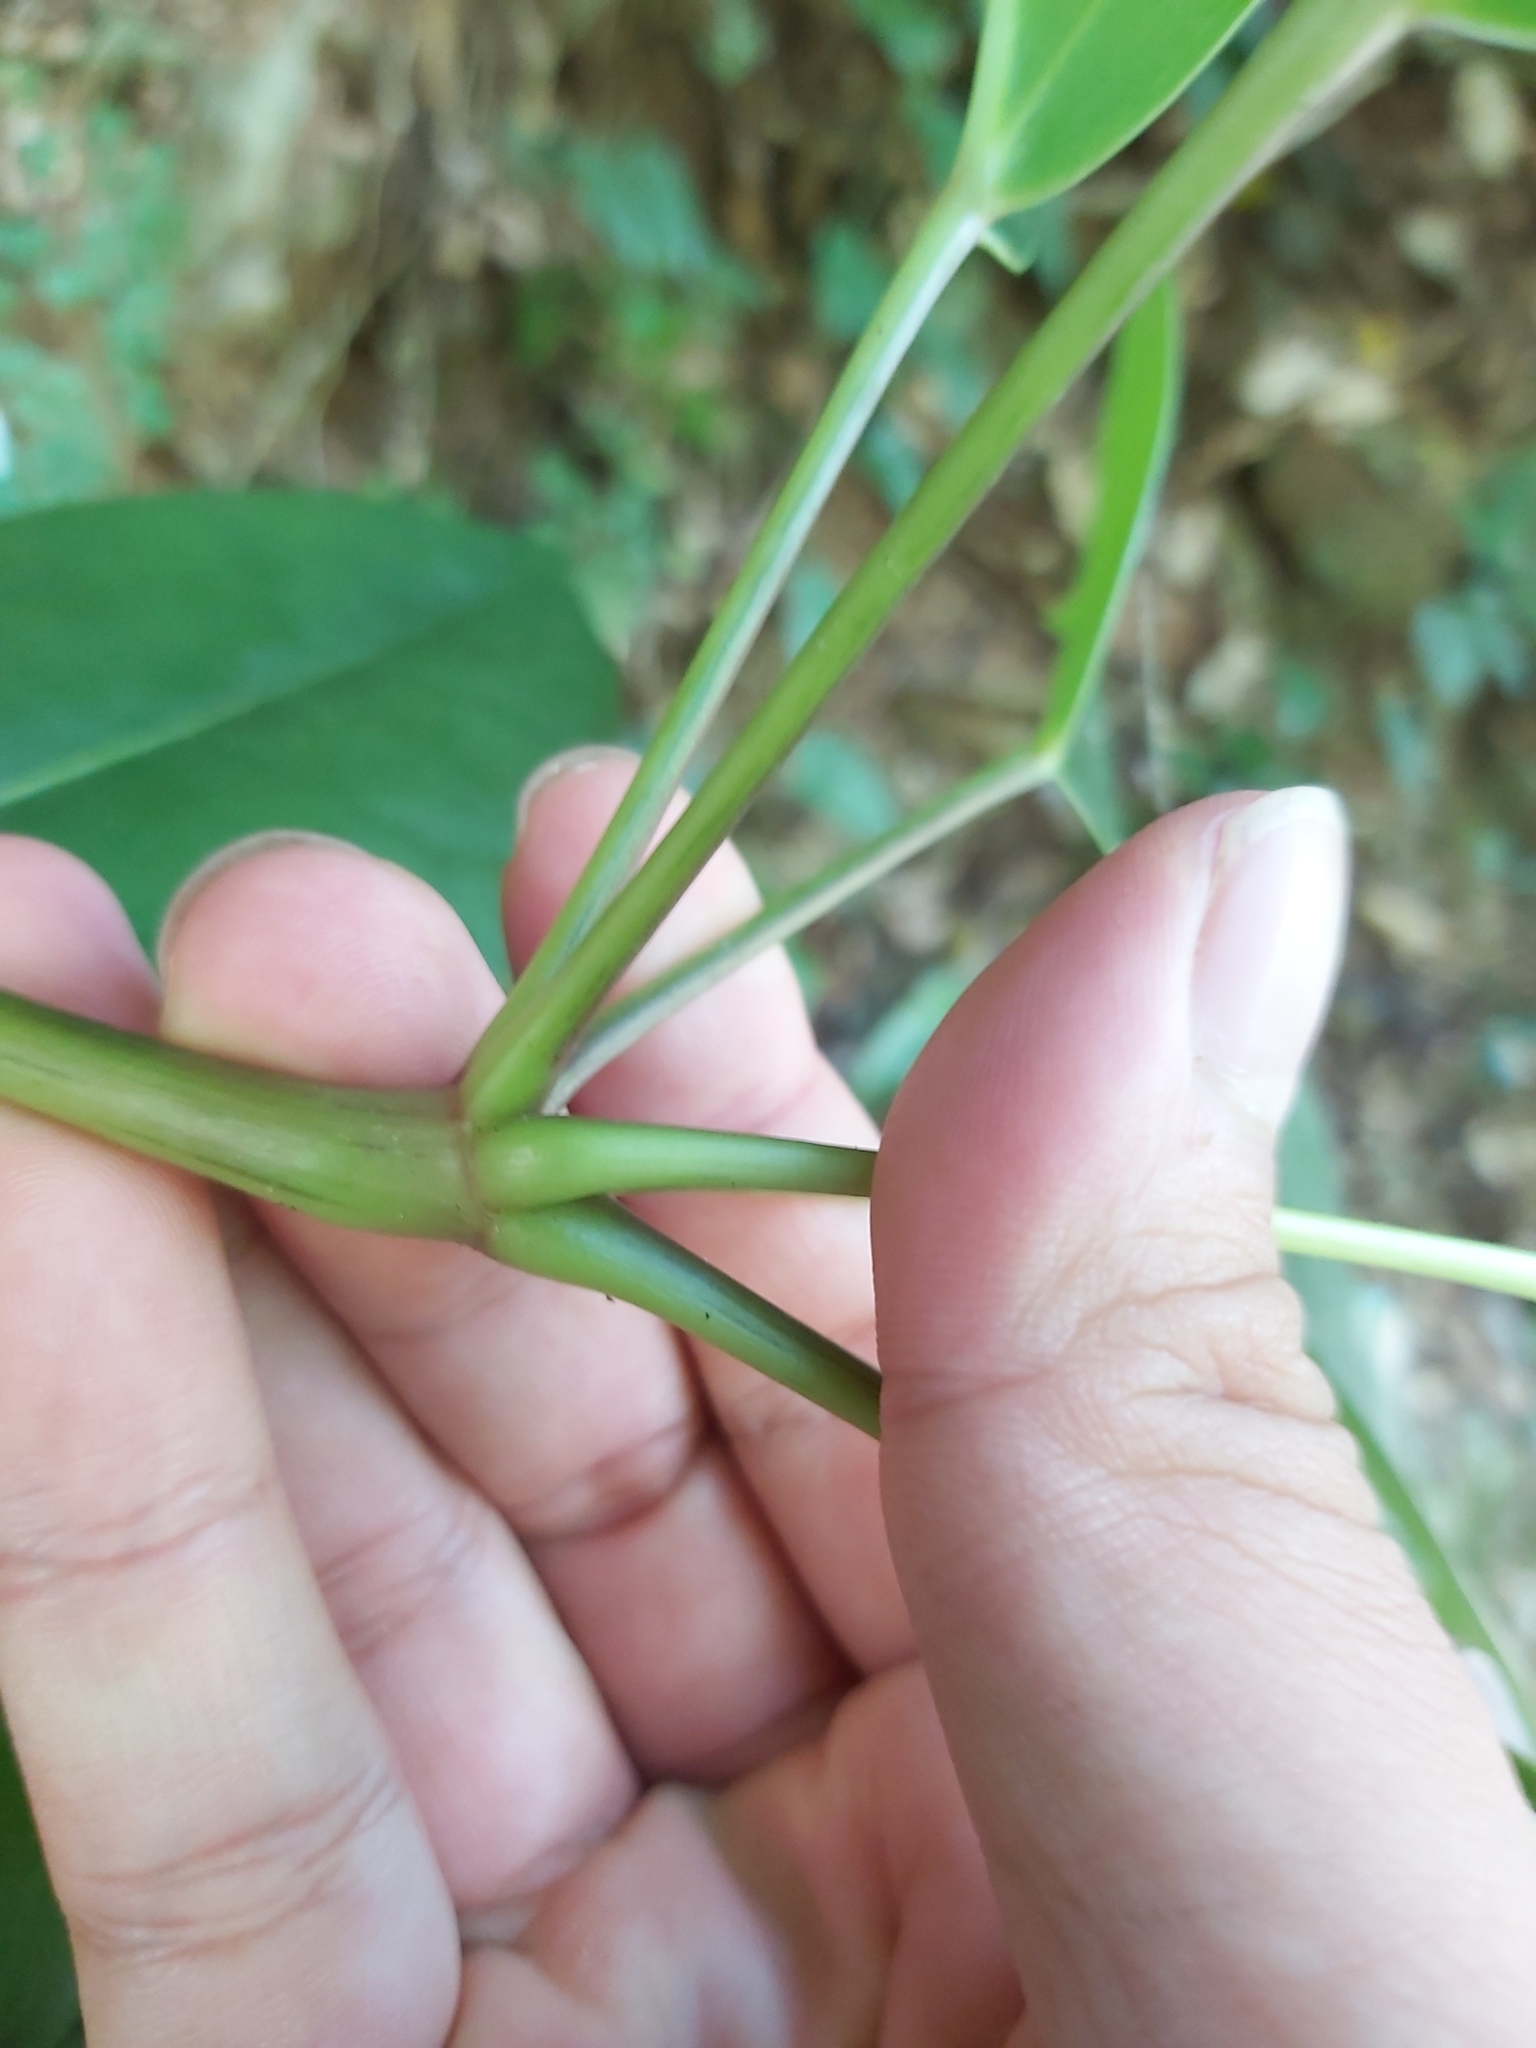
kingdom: Plantae
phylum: Tracheophyta
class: Magnoliopsida
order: Apiales
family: Araliaceae
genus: Heptapleurum
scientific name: Heptapleurum actinophyllum
